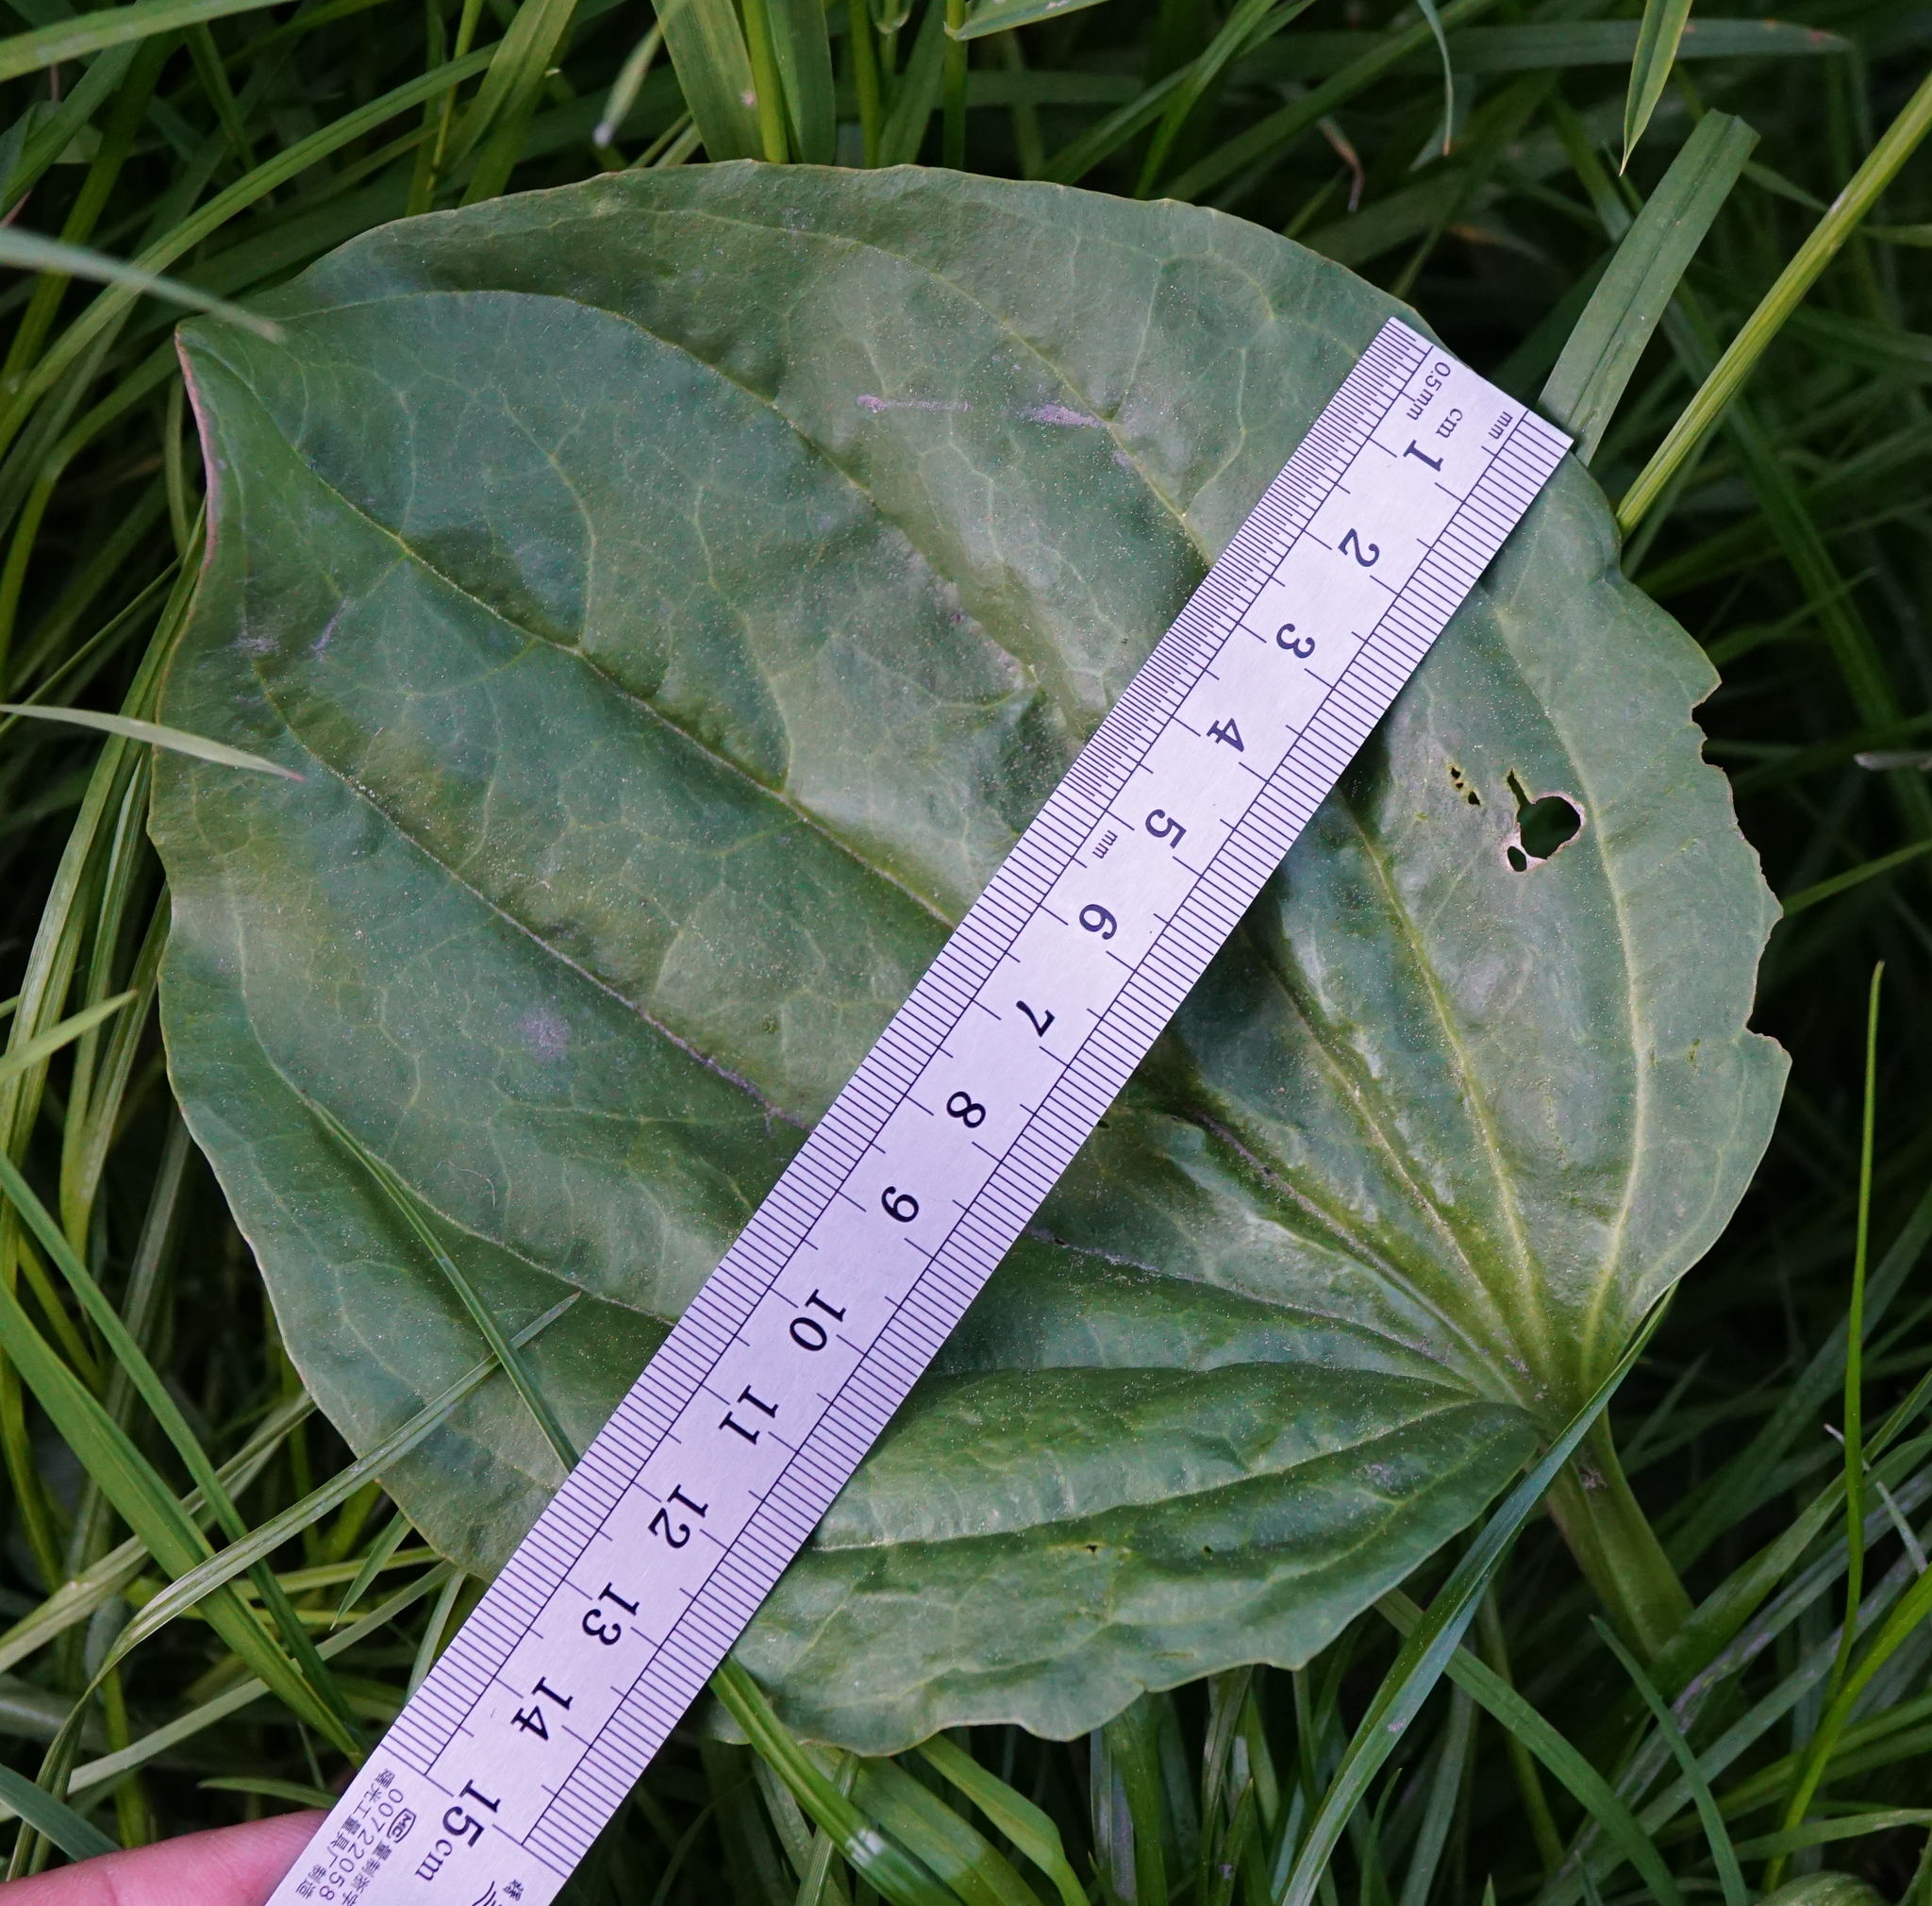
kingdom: Plantae
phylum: Tracheophyta
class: Magnoliopsida
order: Lamiales
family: Plantaginaceae
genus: Plantago
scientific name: Plantago major
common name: Common plantain
